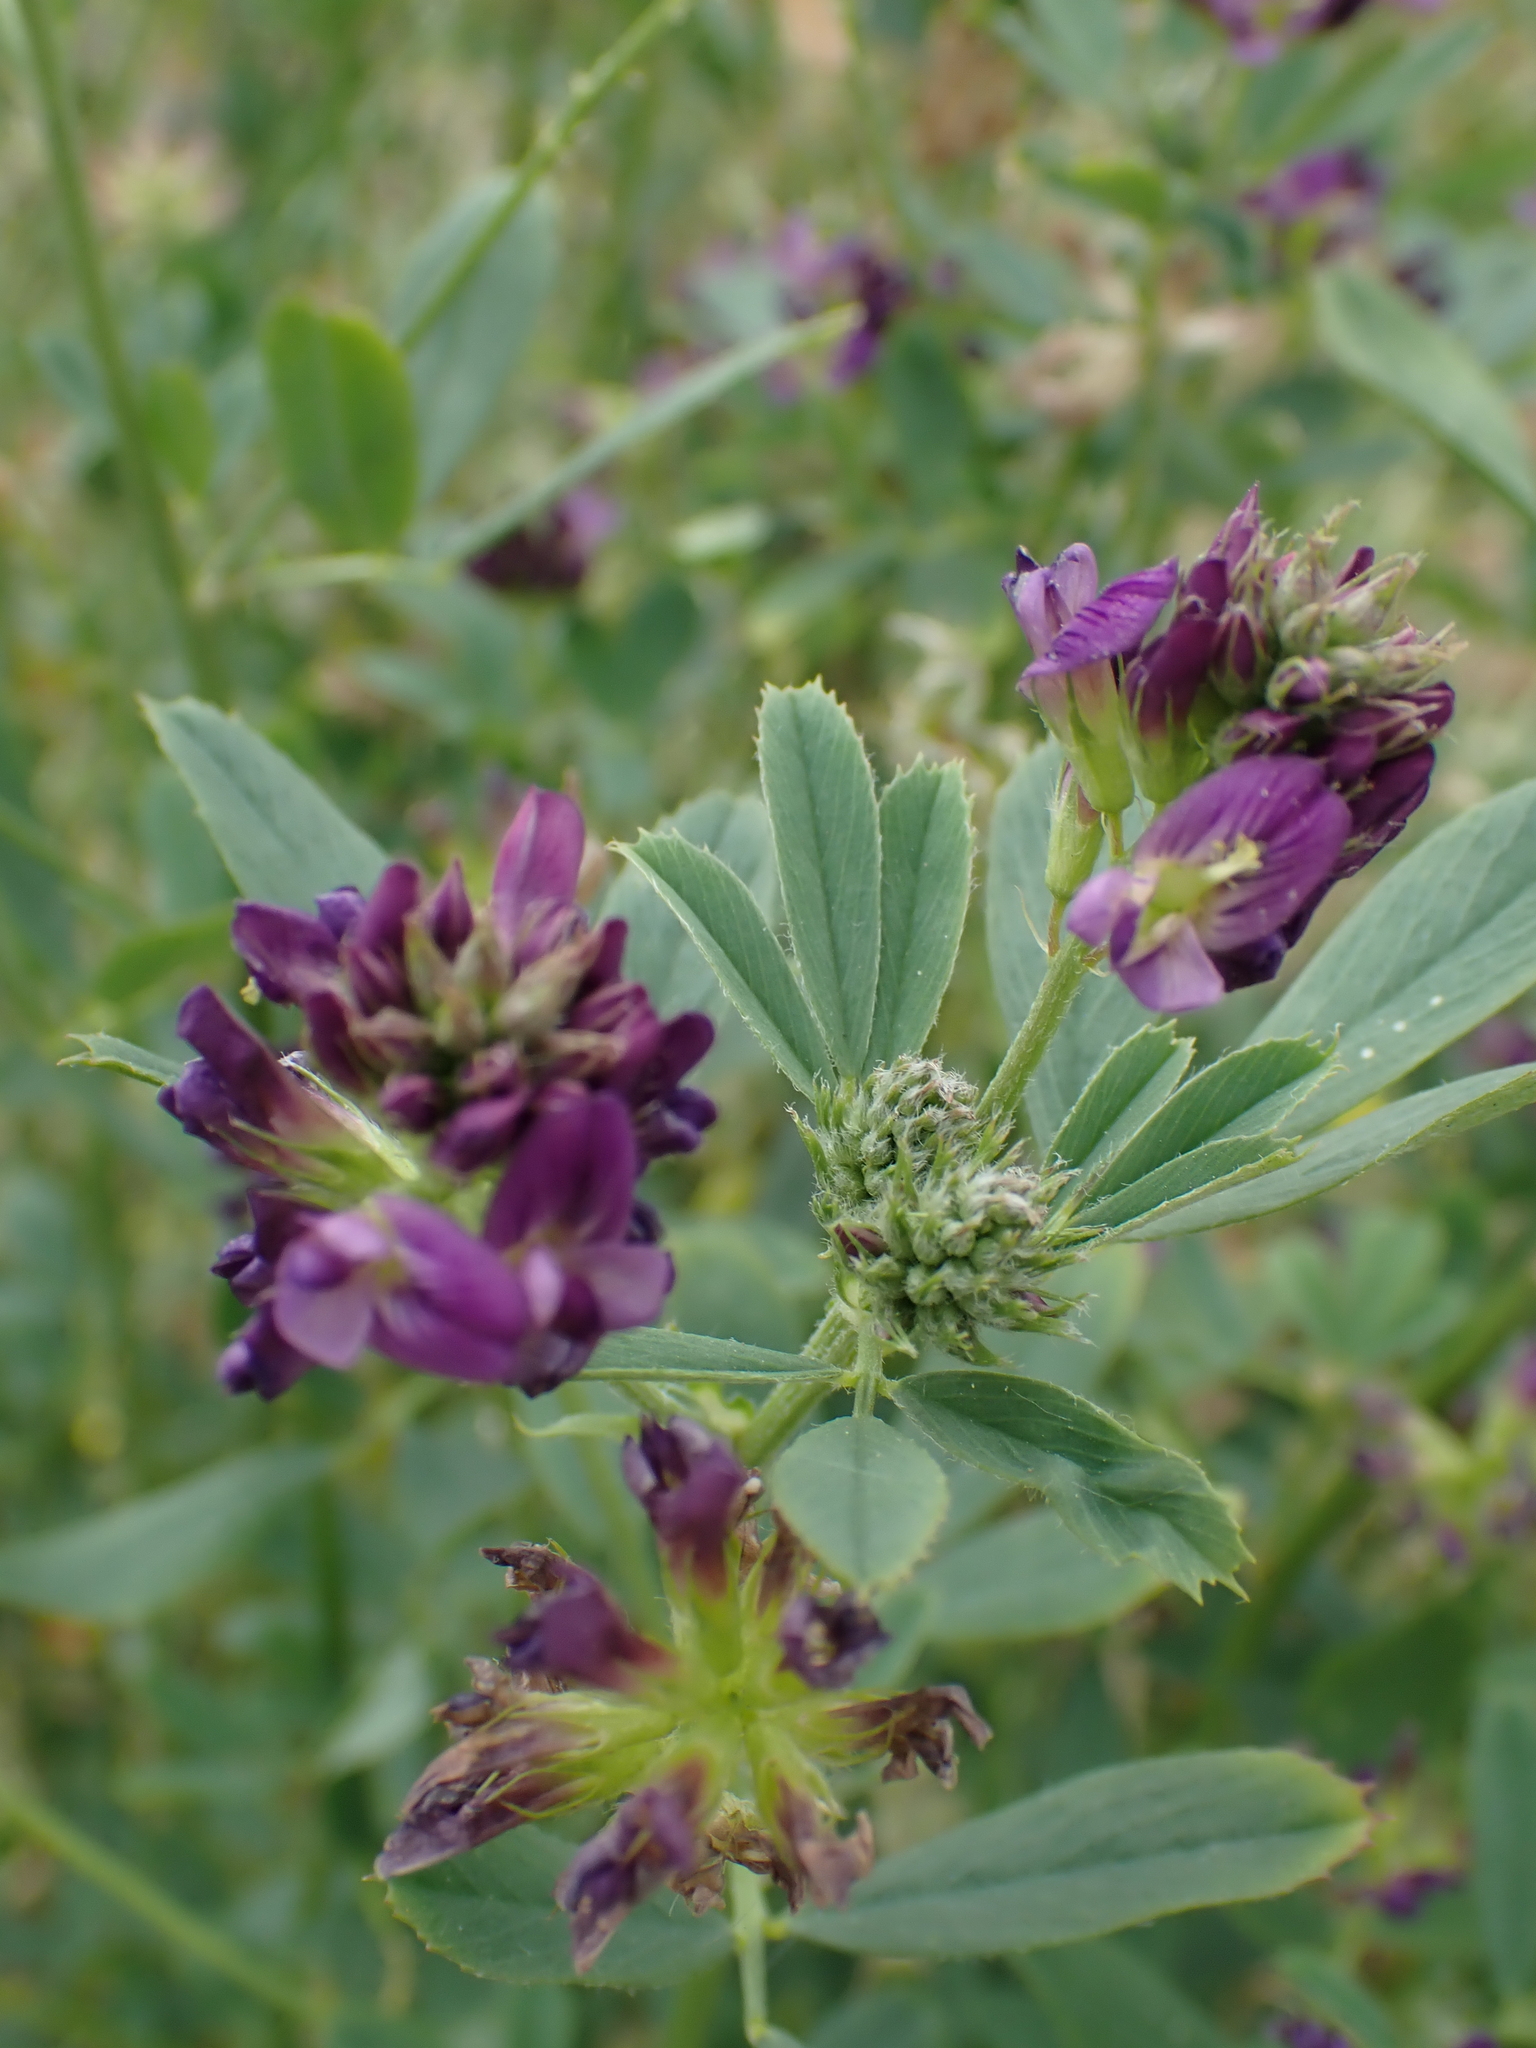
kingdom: Plantae
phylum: Tracheophyta
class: Magnoliopsida
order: Fabales
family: Fabaceae
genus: Medicago
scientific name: Medicago sativa
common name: Alfalfa
